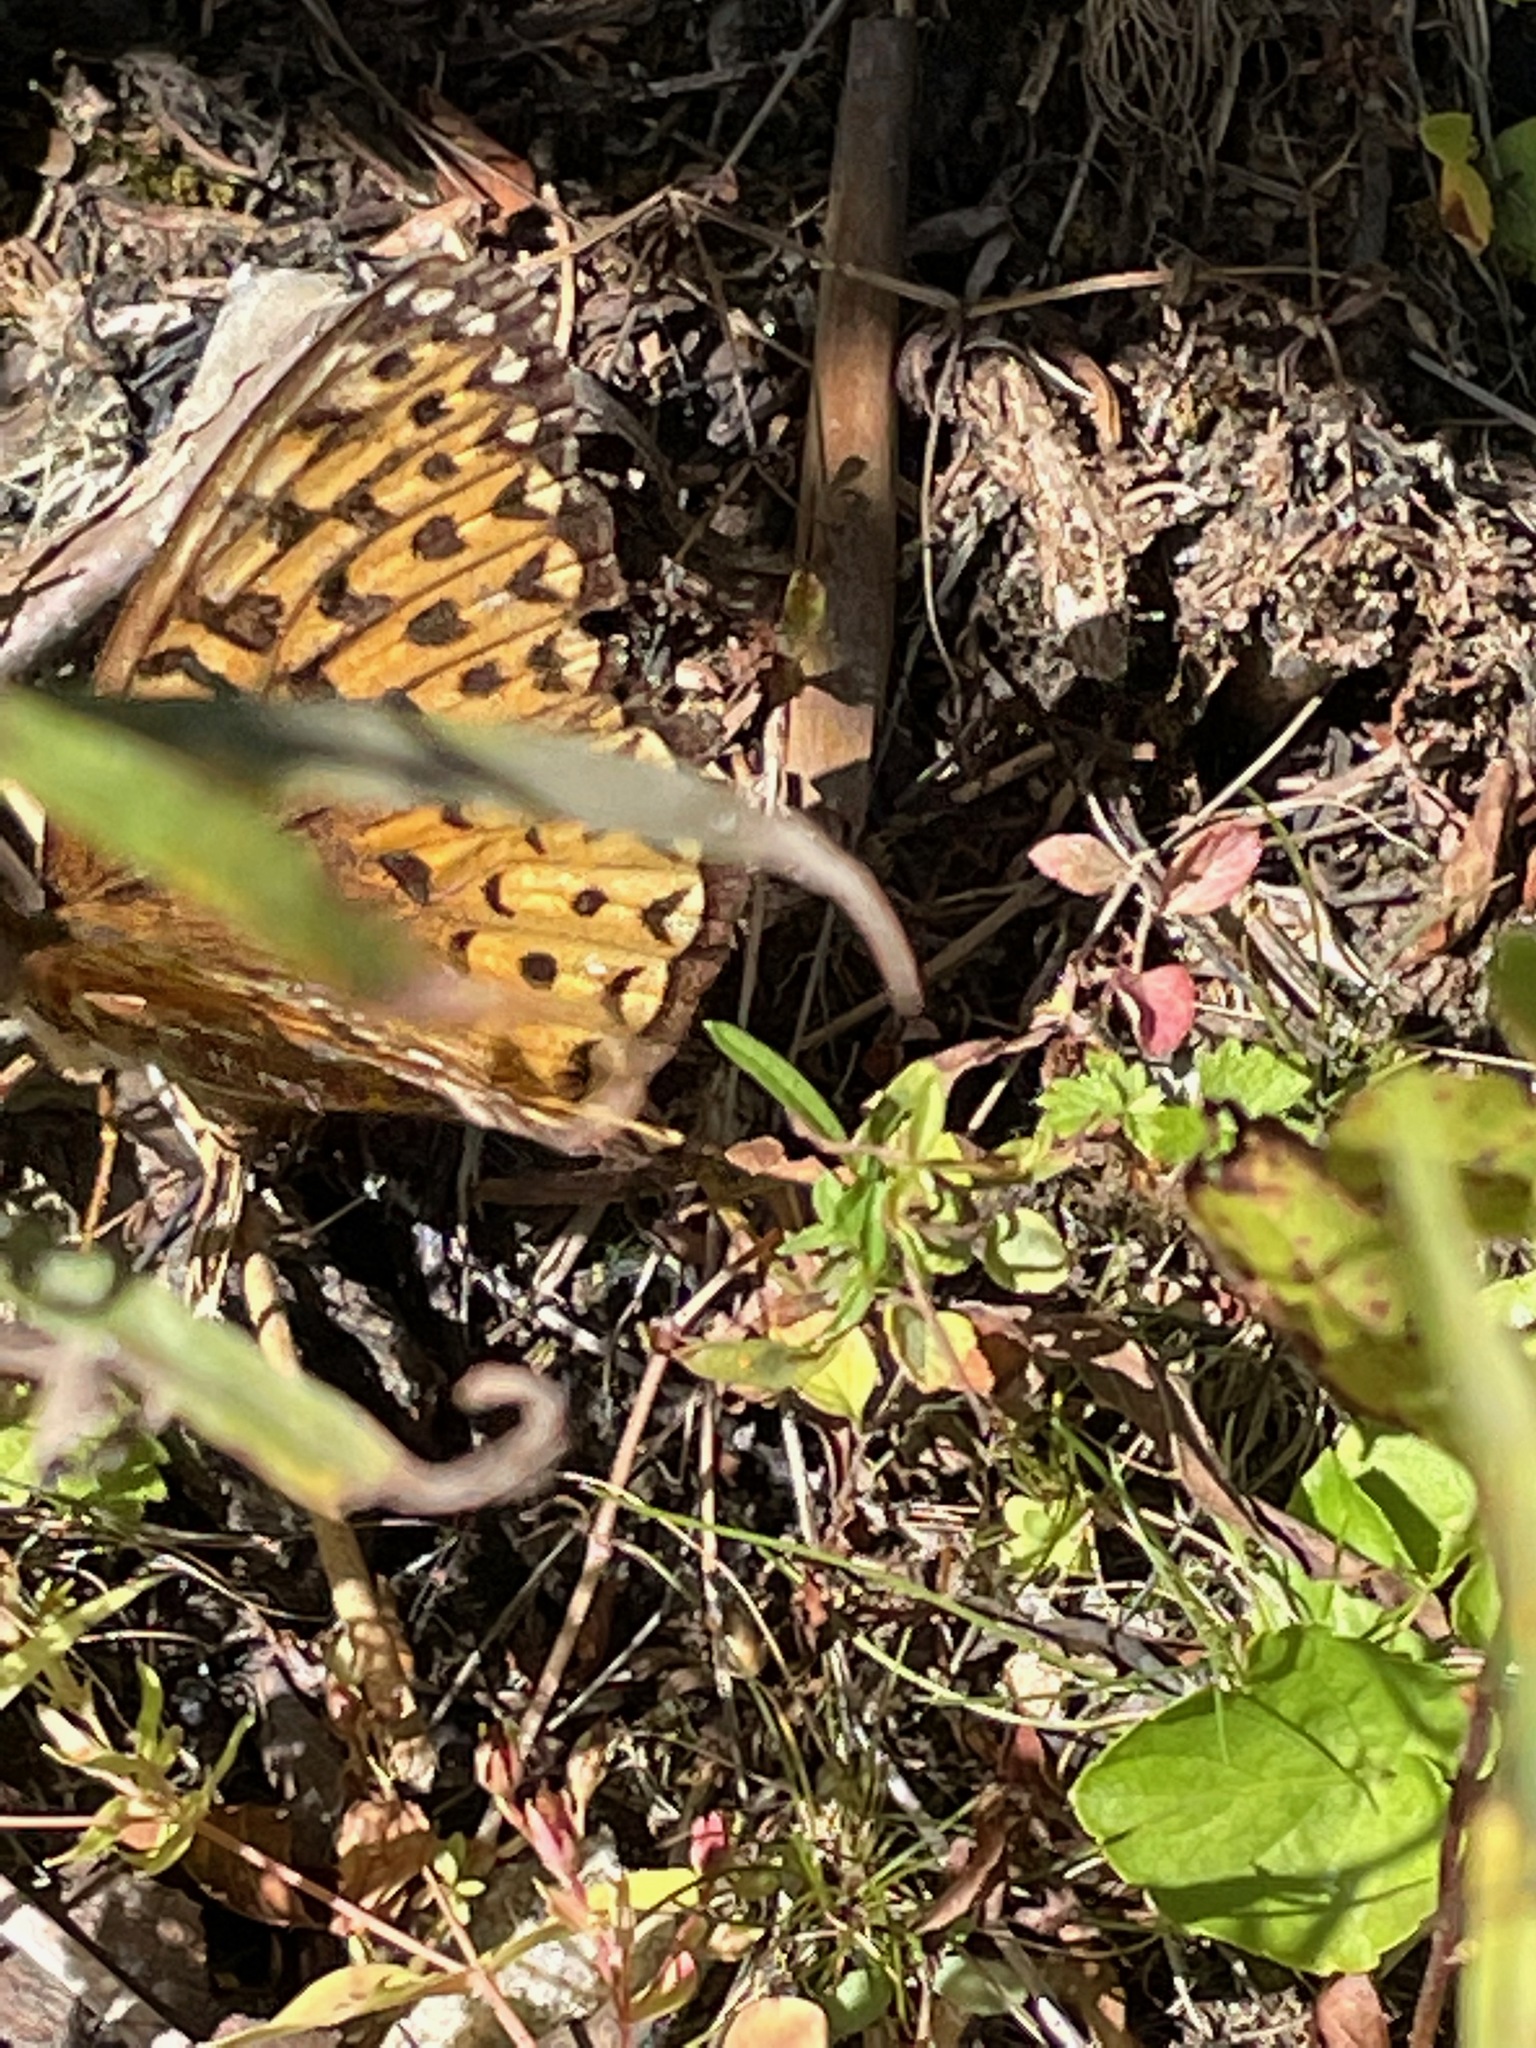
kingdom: Animalia
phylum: Arthropoda
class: Insecta
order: Lepidoptera
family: Nymphalidae
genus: Speyeria
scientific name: Speyeria atlantis
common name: Atlantis fritillary
